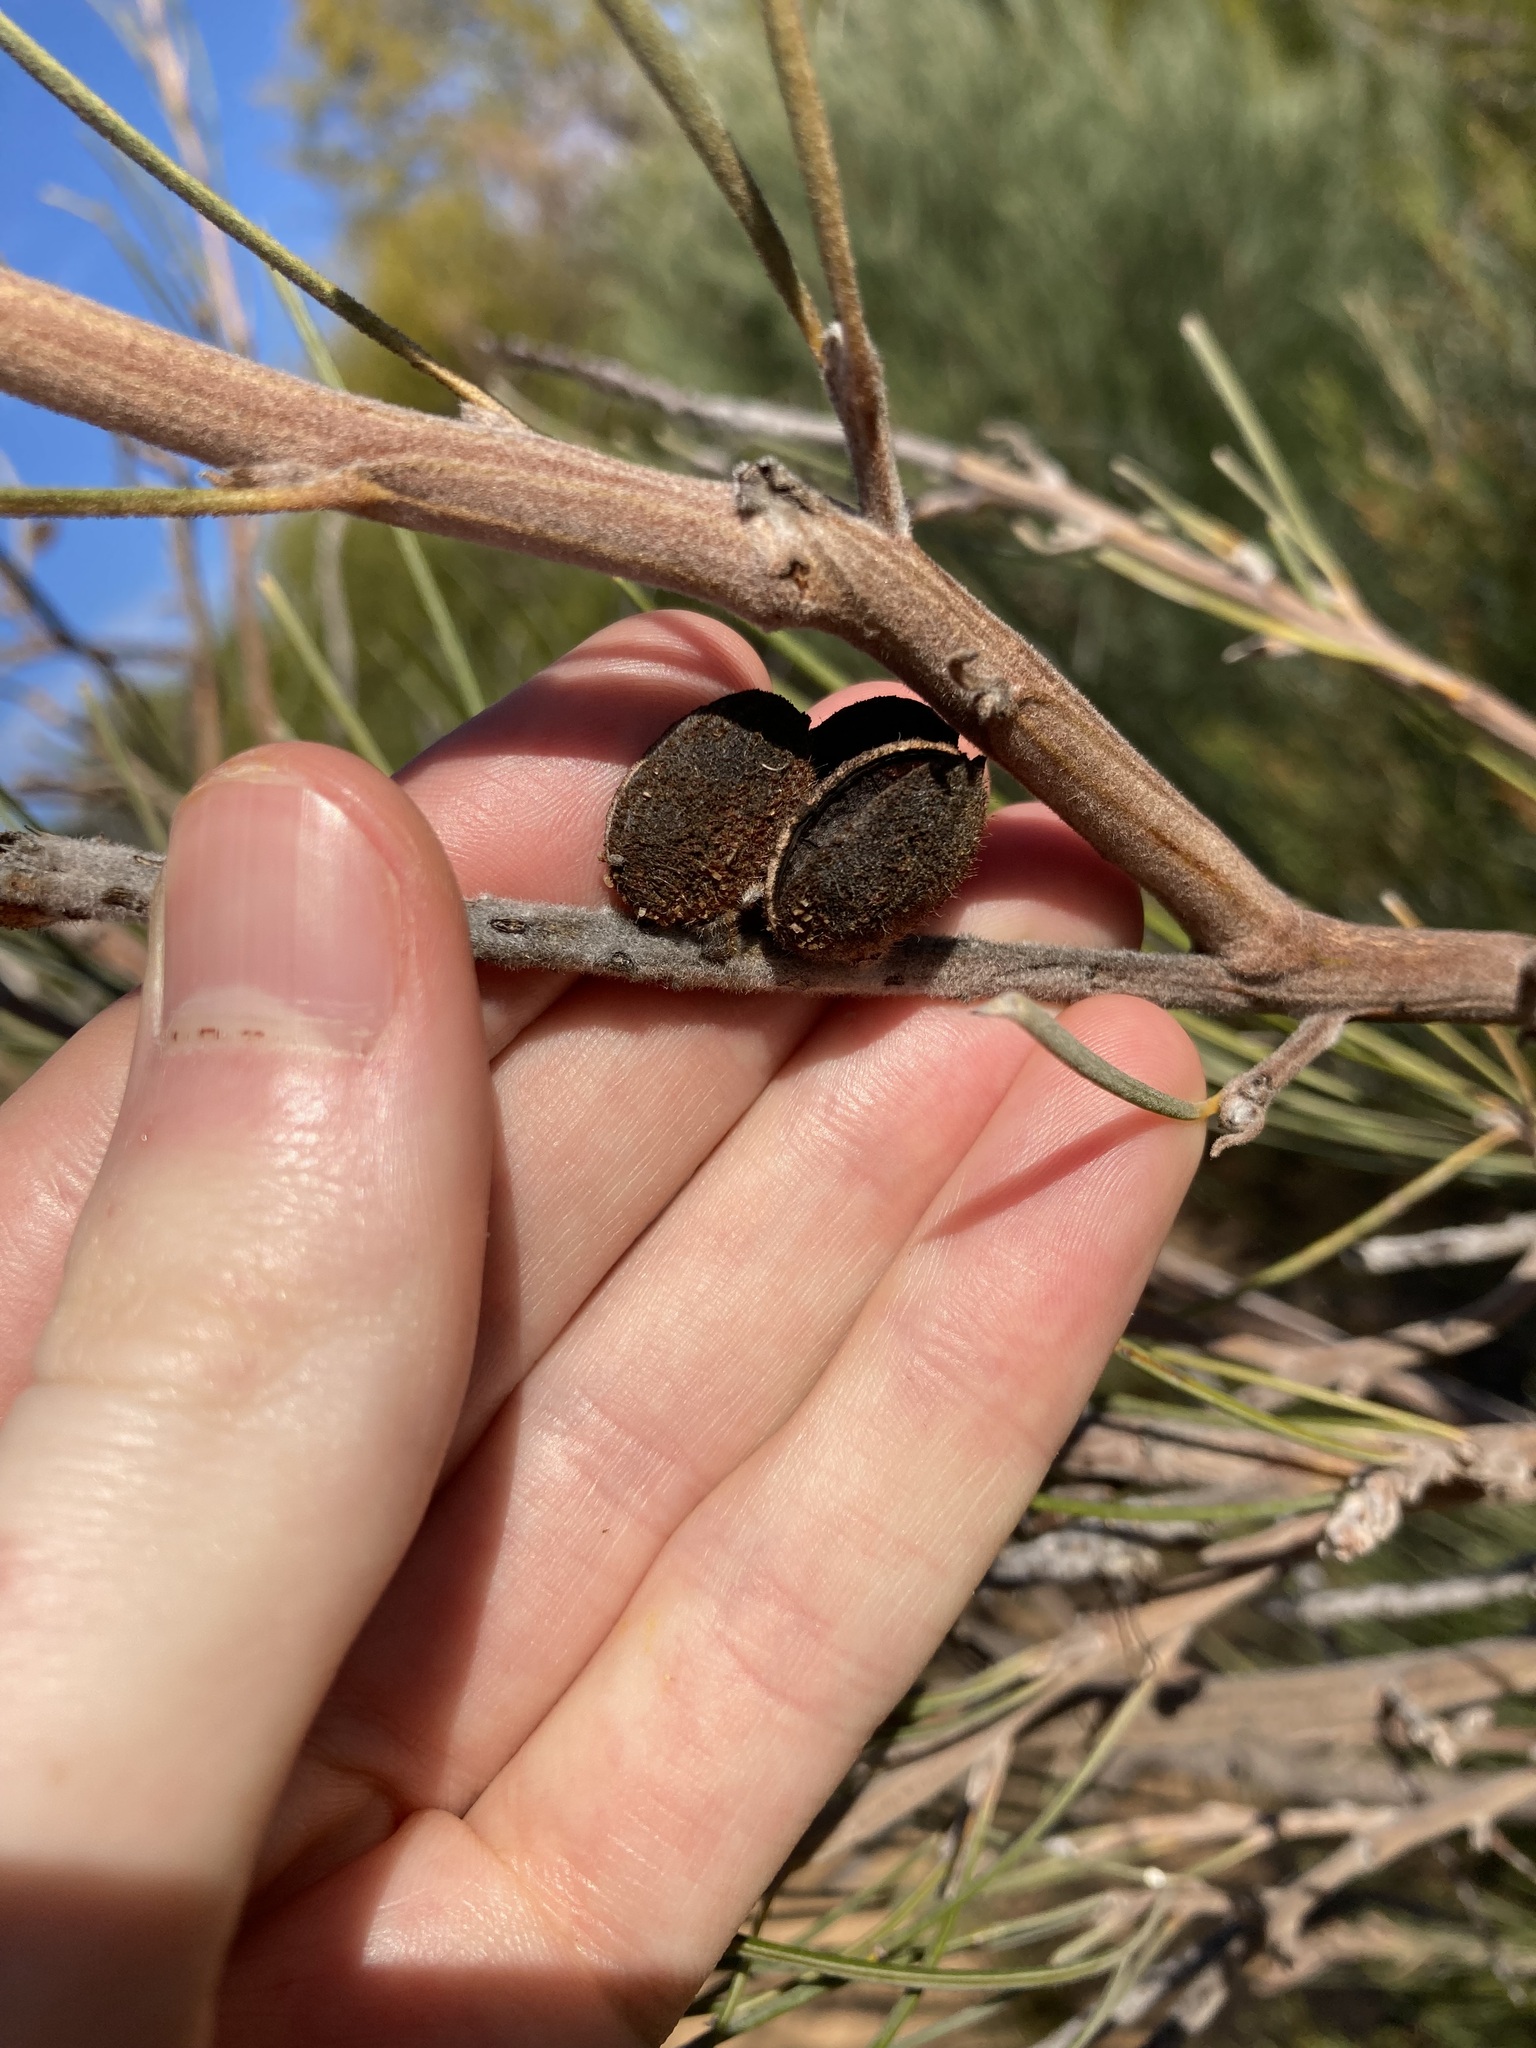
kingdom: Plantae
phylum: Tracheophyta
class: Magnoliopsida
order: Proteales
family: Proteaceae
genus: Grevillea
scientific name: Grevillea eriostachya
